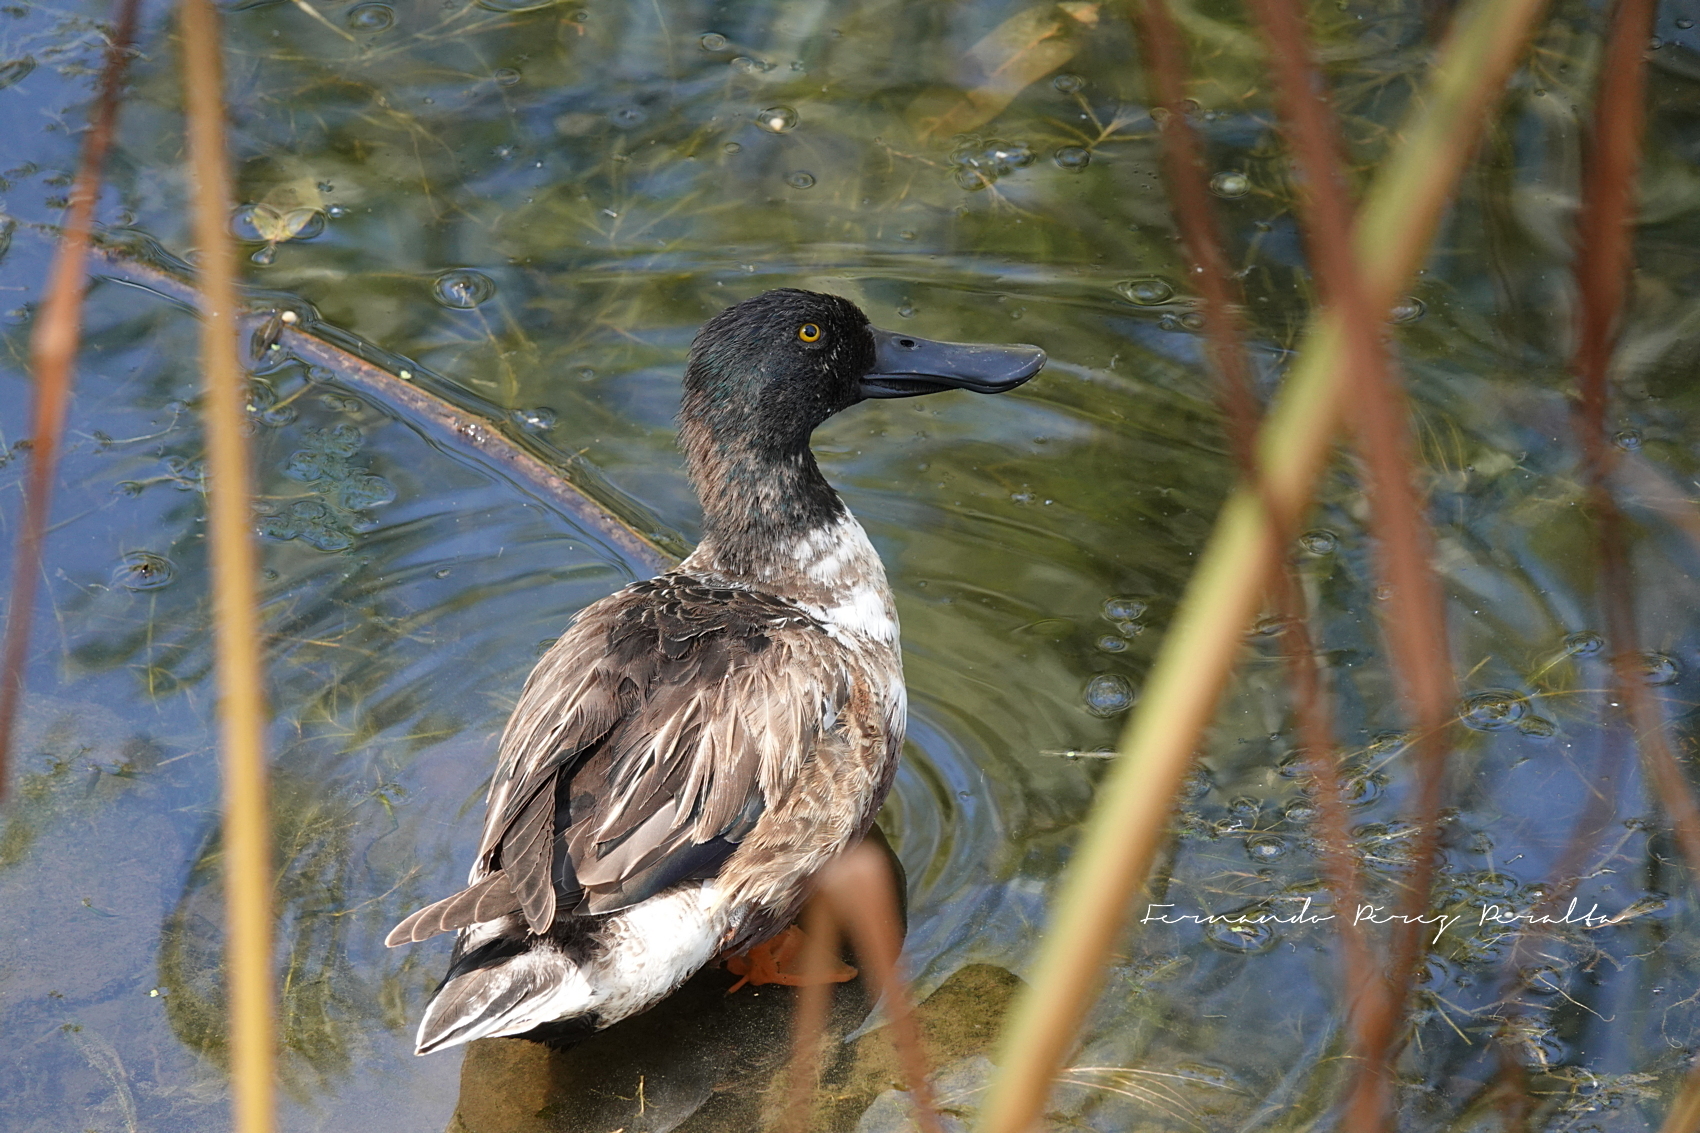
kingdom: Animalia
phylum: Chordata
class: Aves
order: Anseriformes
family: Anatidae
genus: Spatula
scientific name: Spatula clypeata
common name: Northern shoveler
